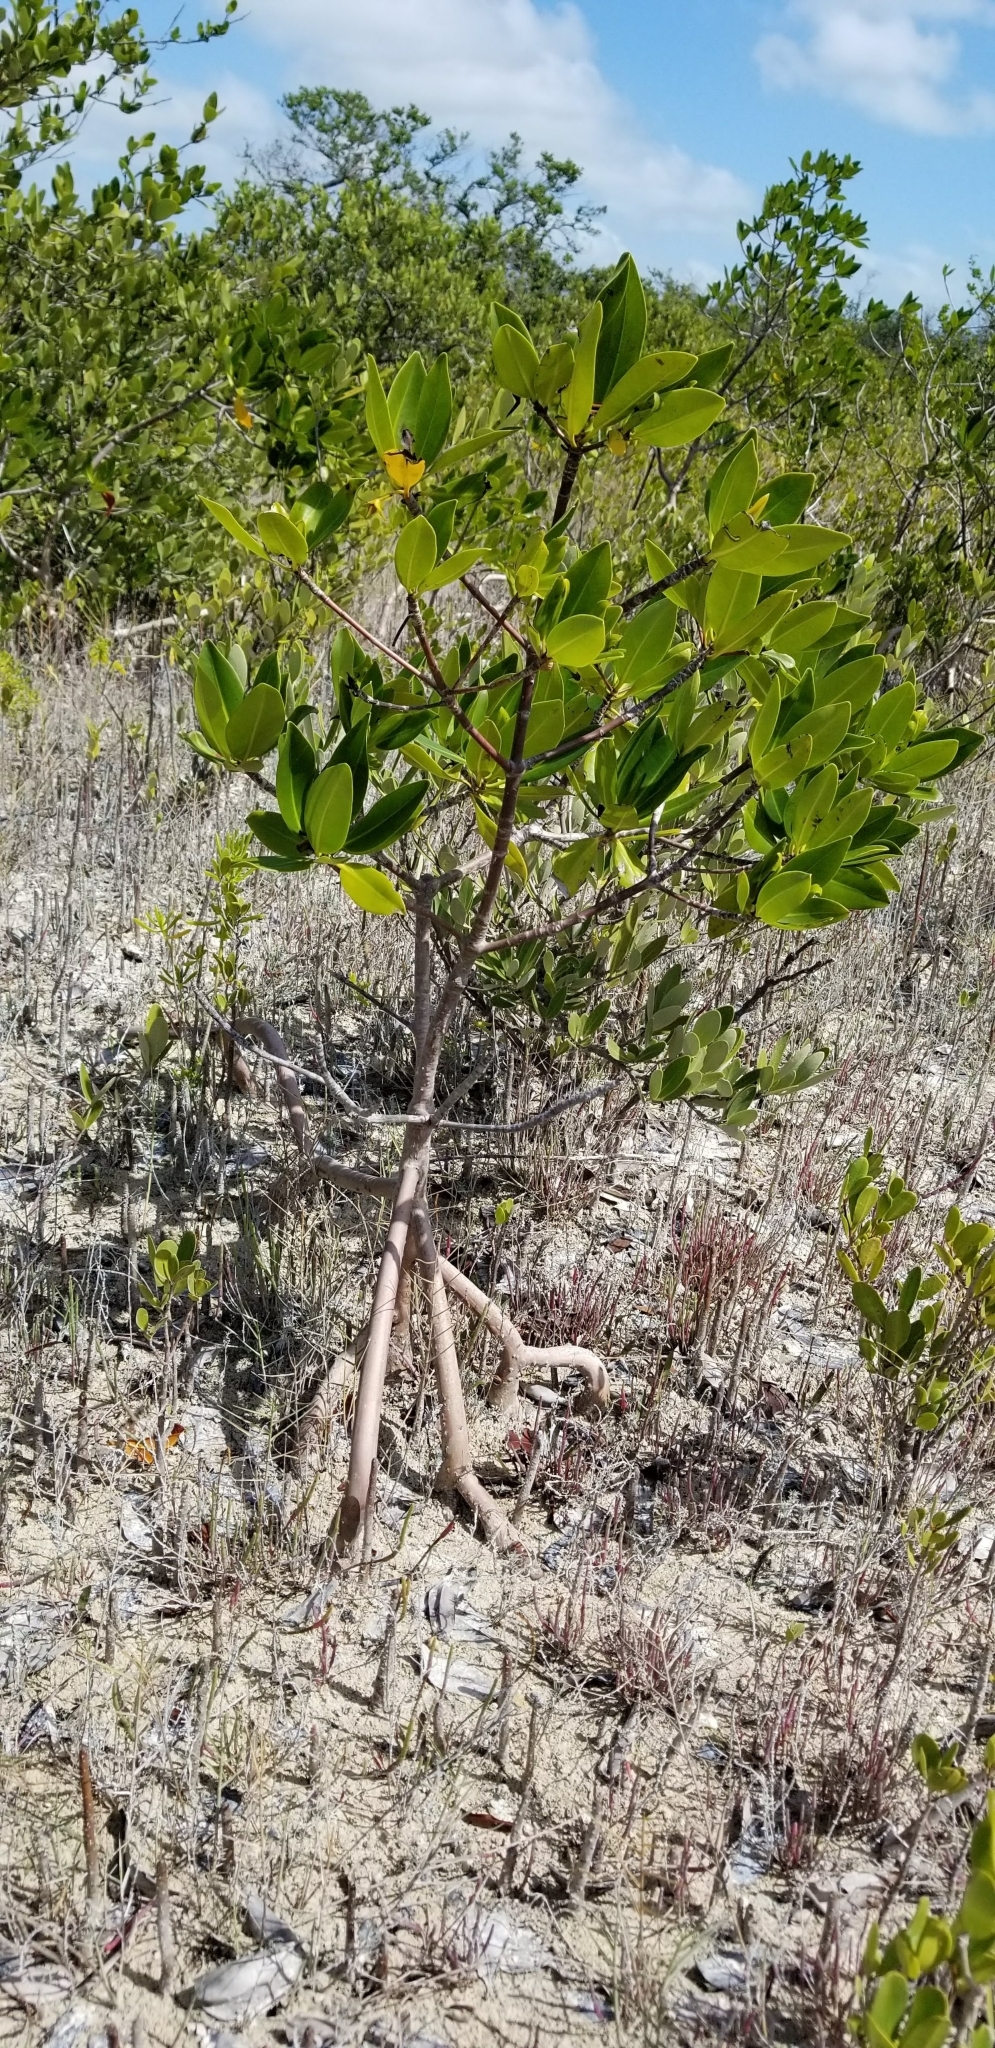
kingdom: Plantae
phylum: Tracheophyta
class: Magnoliopsida
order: Malpighiales
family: Rhizophoraceae
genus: Rhizophora
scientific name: Rhizophora mangle
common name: Red mangrove
